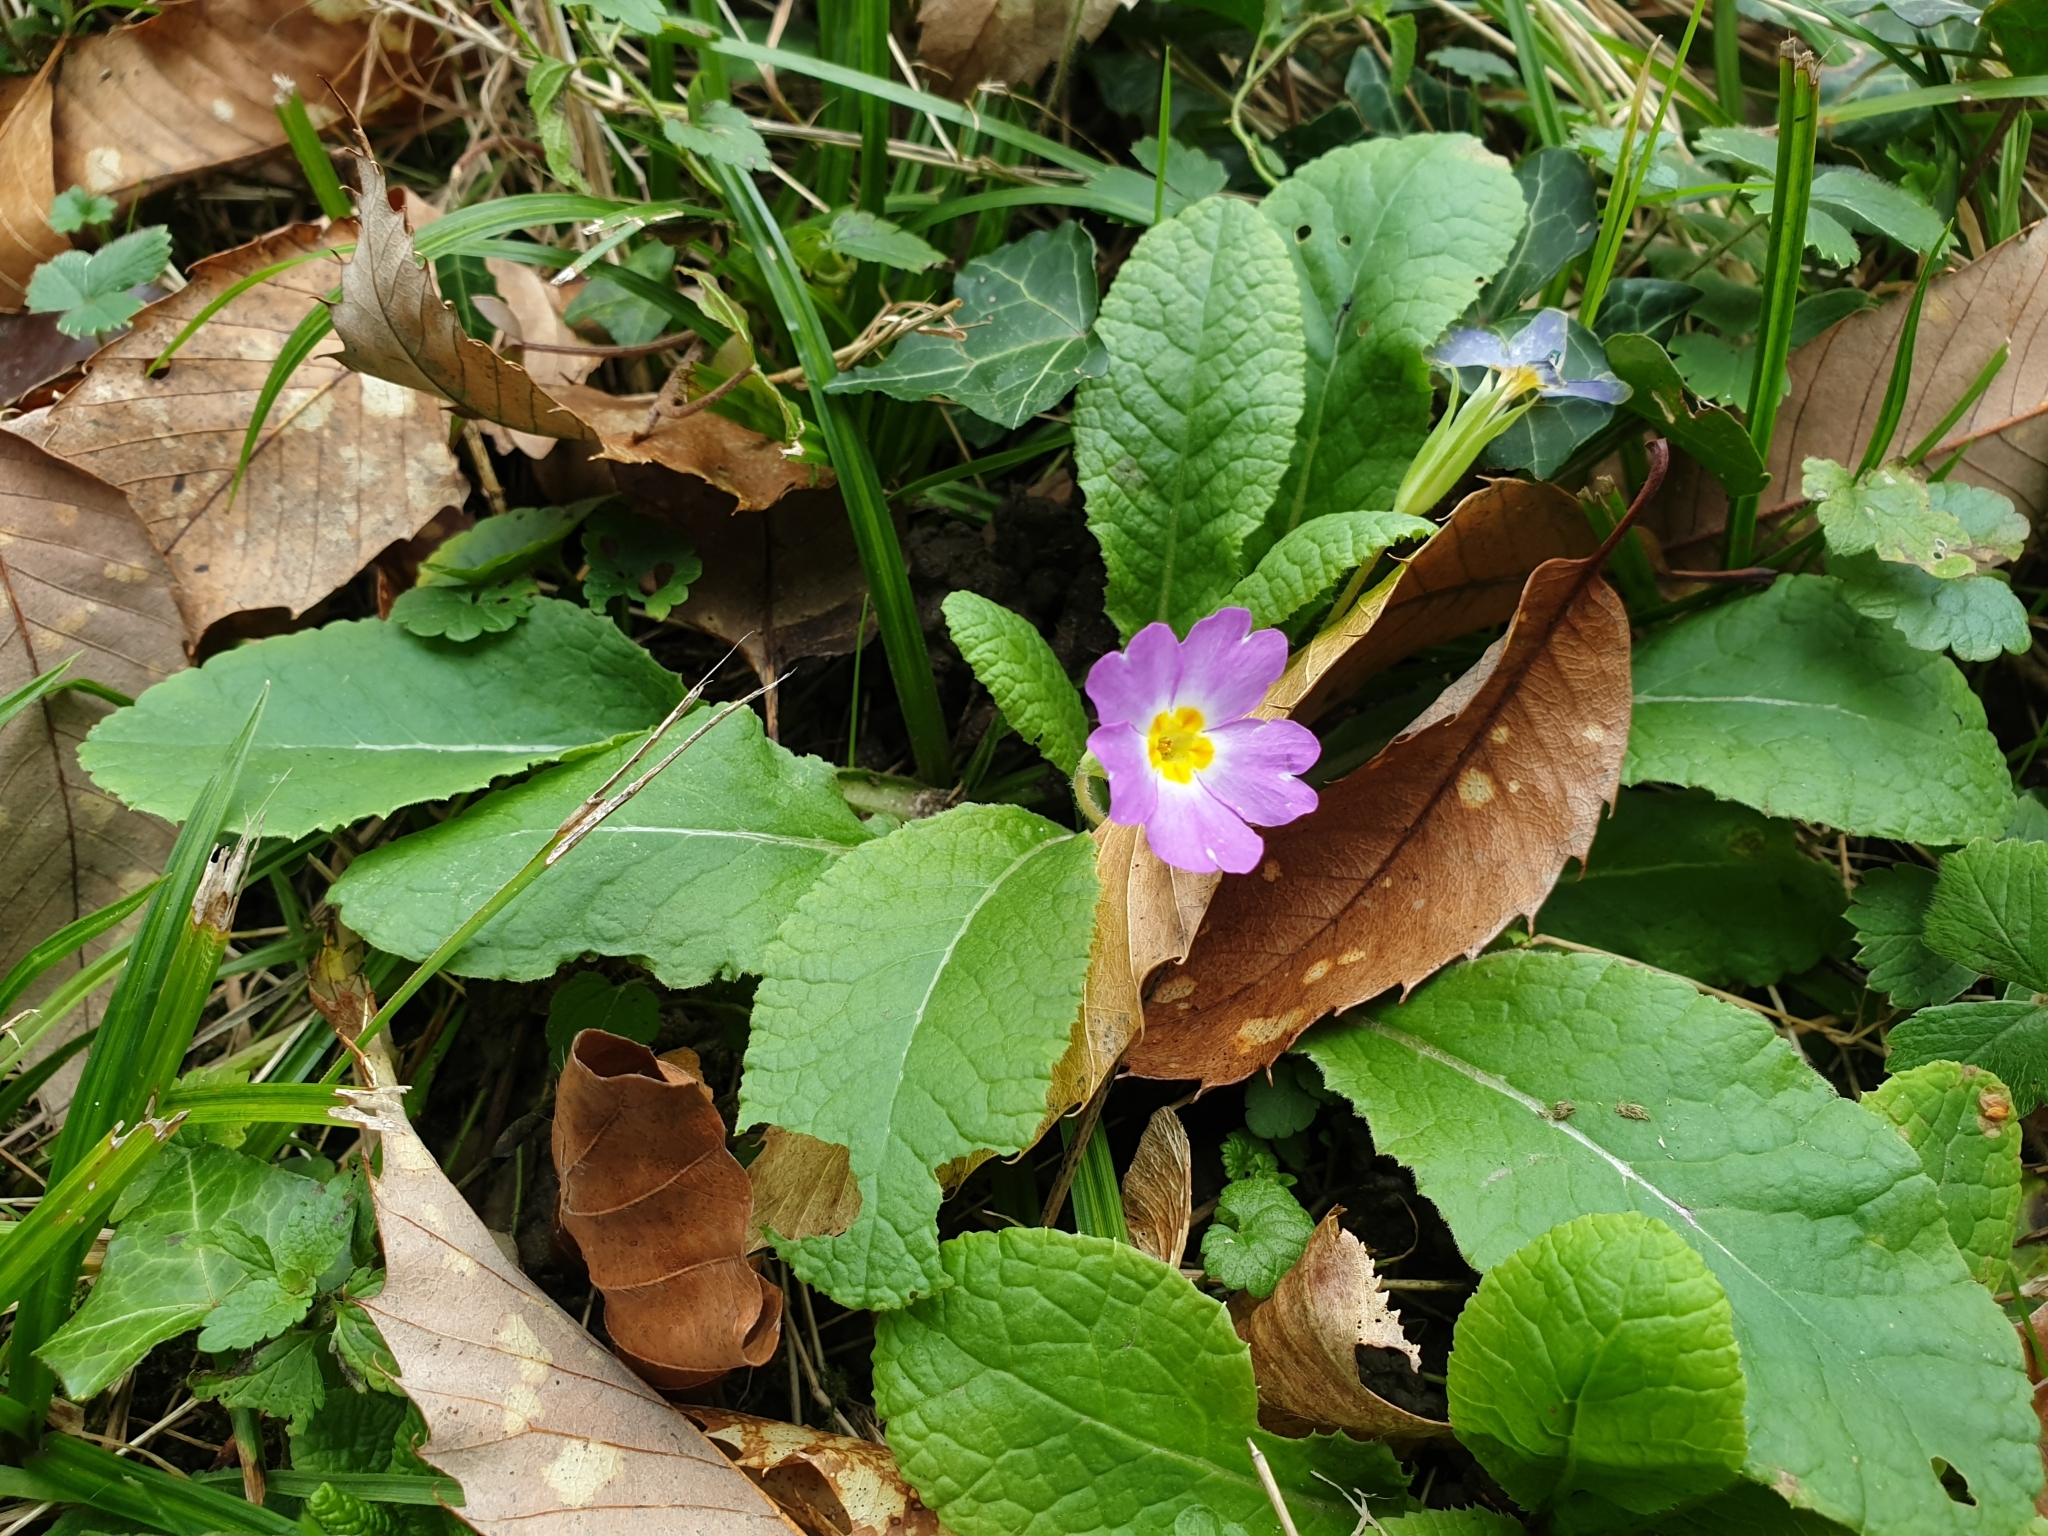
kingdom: Plantae
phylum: Tracheophyta
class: Magnoliopsida
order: Ericales
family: Primulaceae
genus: Primula
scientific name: Primula vulgaris
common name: Primrose
